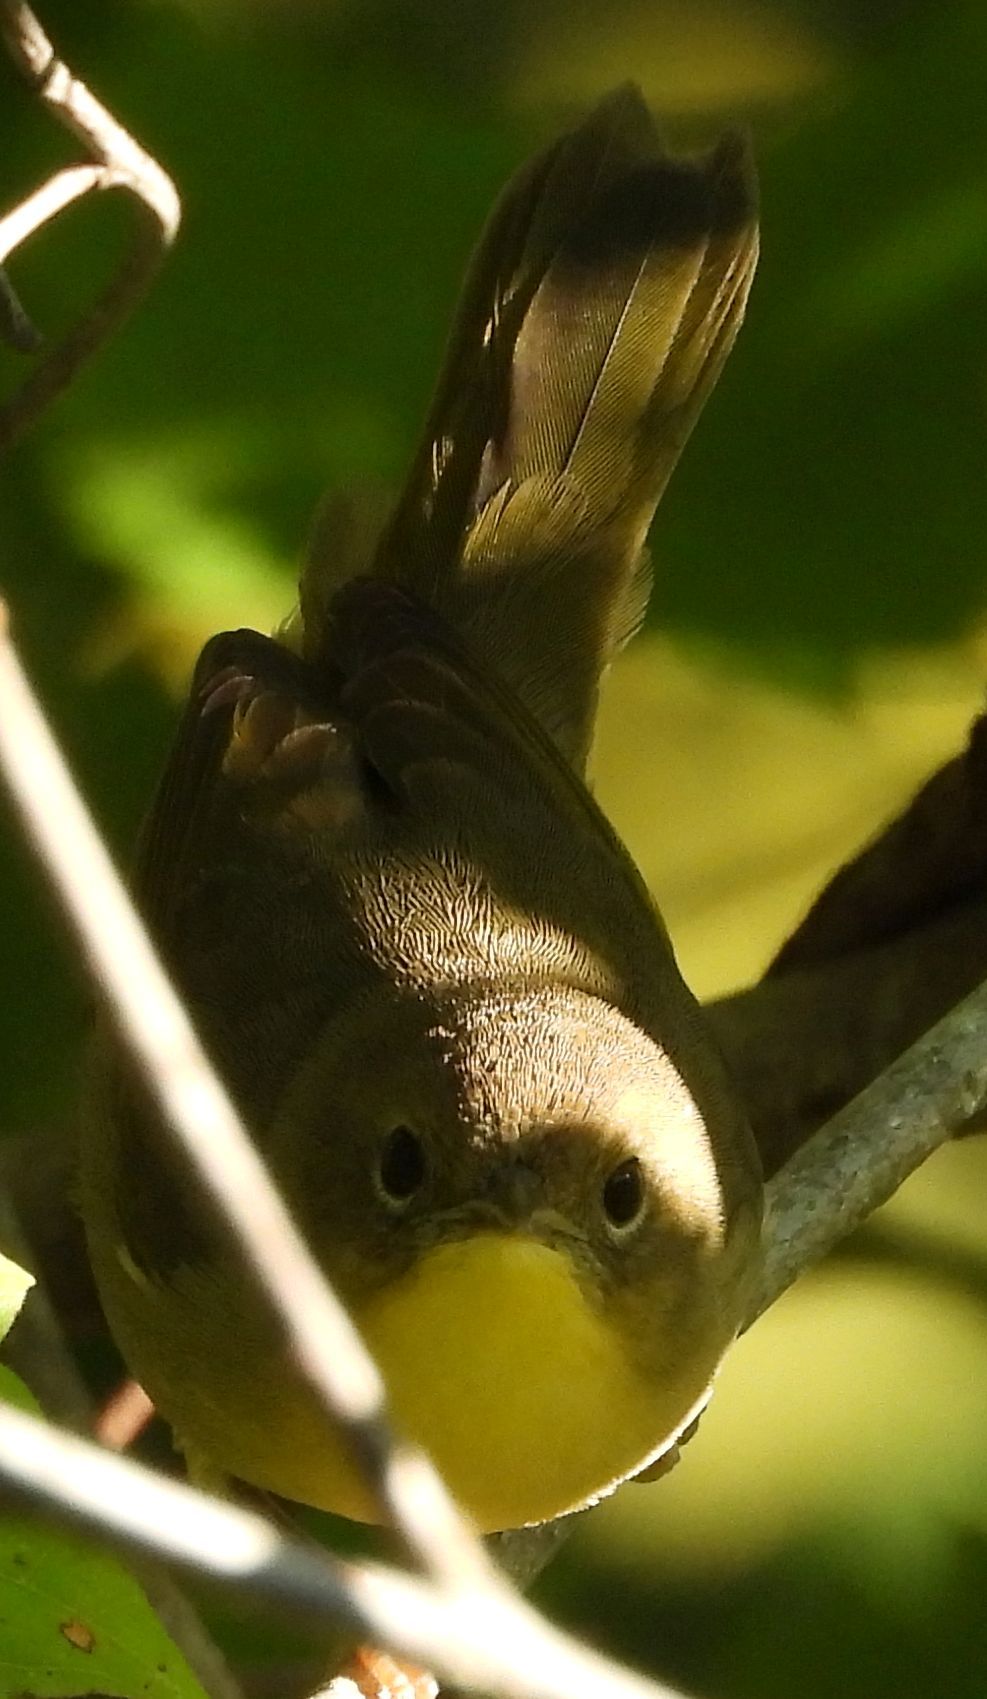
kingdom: Animalia
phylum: Chordata
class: Aves
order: Passeriformes
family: Parulidae
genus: Geothlypis
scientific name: Geothlypis trichas
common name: Common yellowthroat
